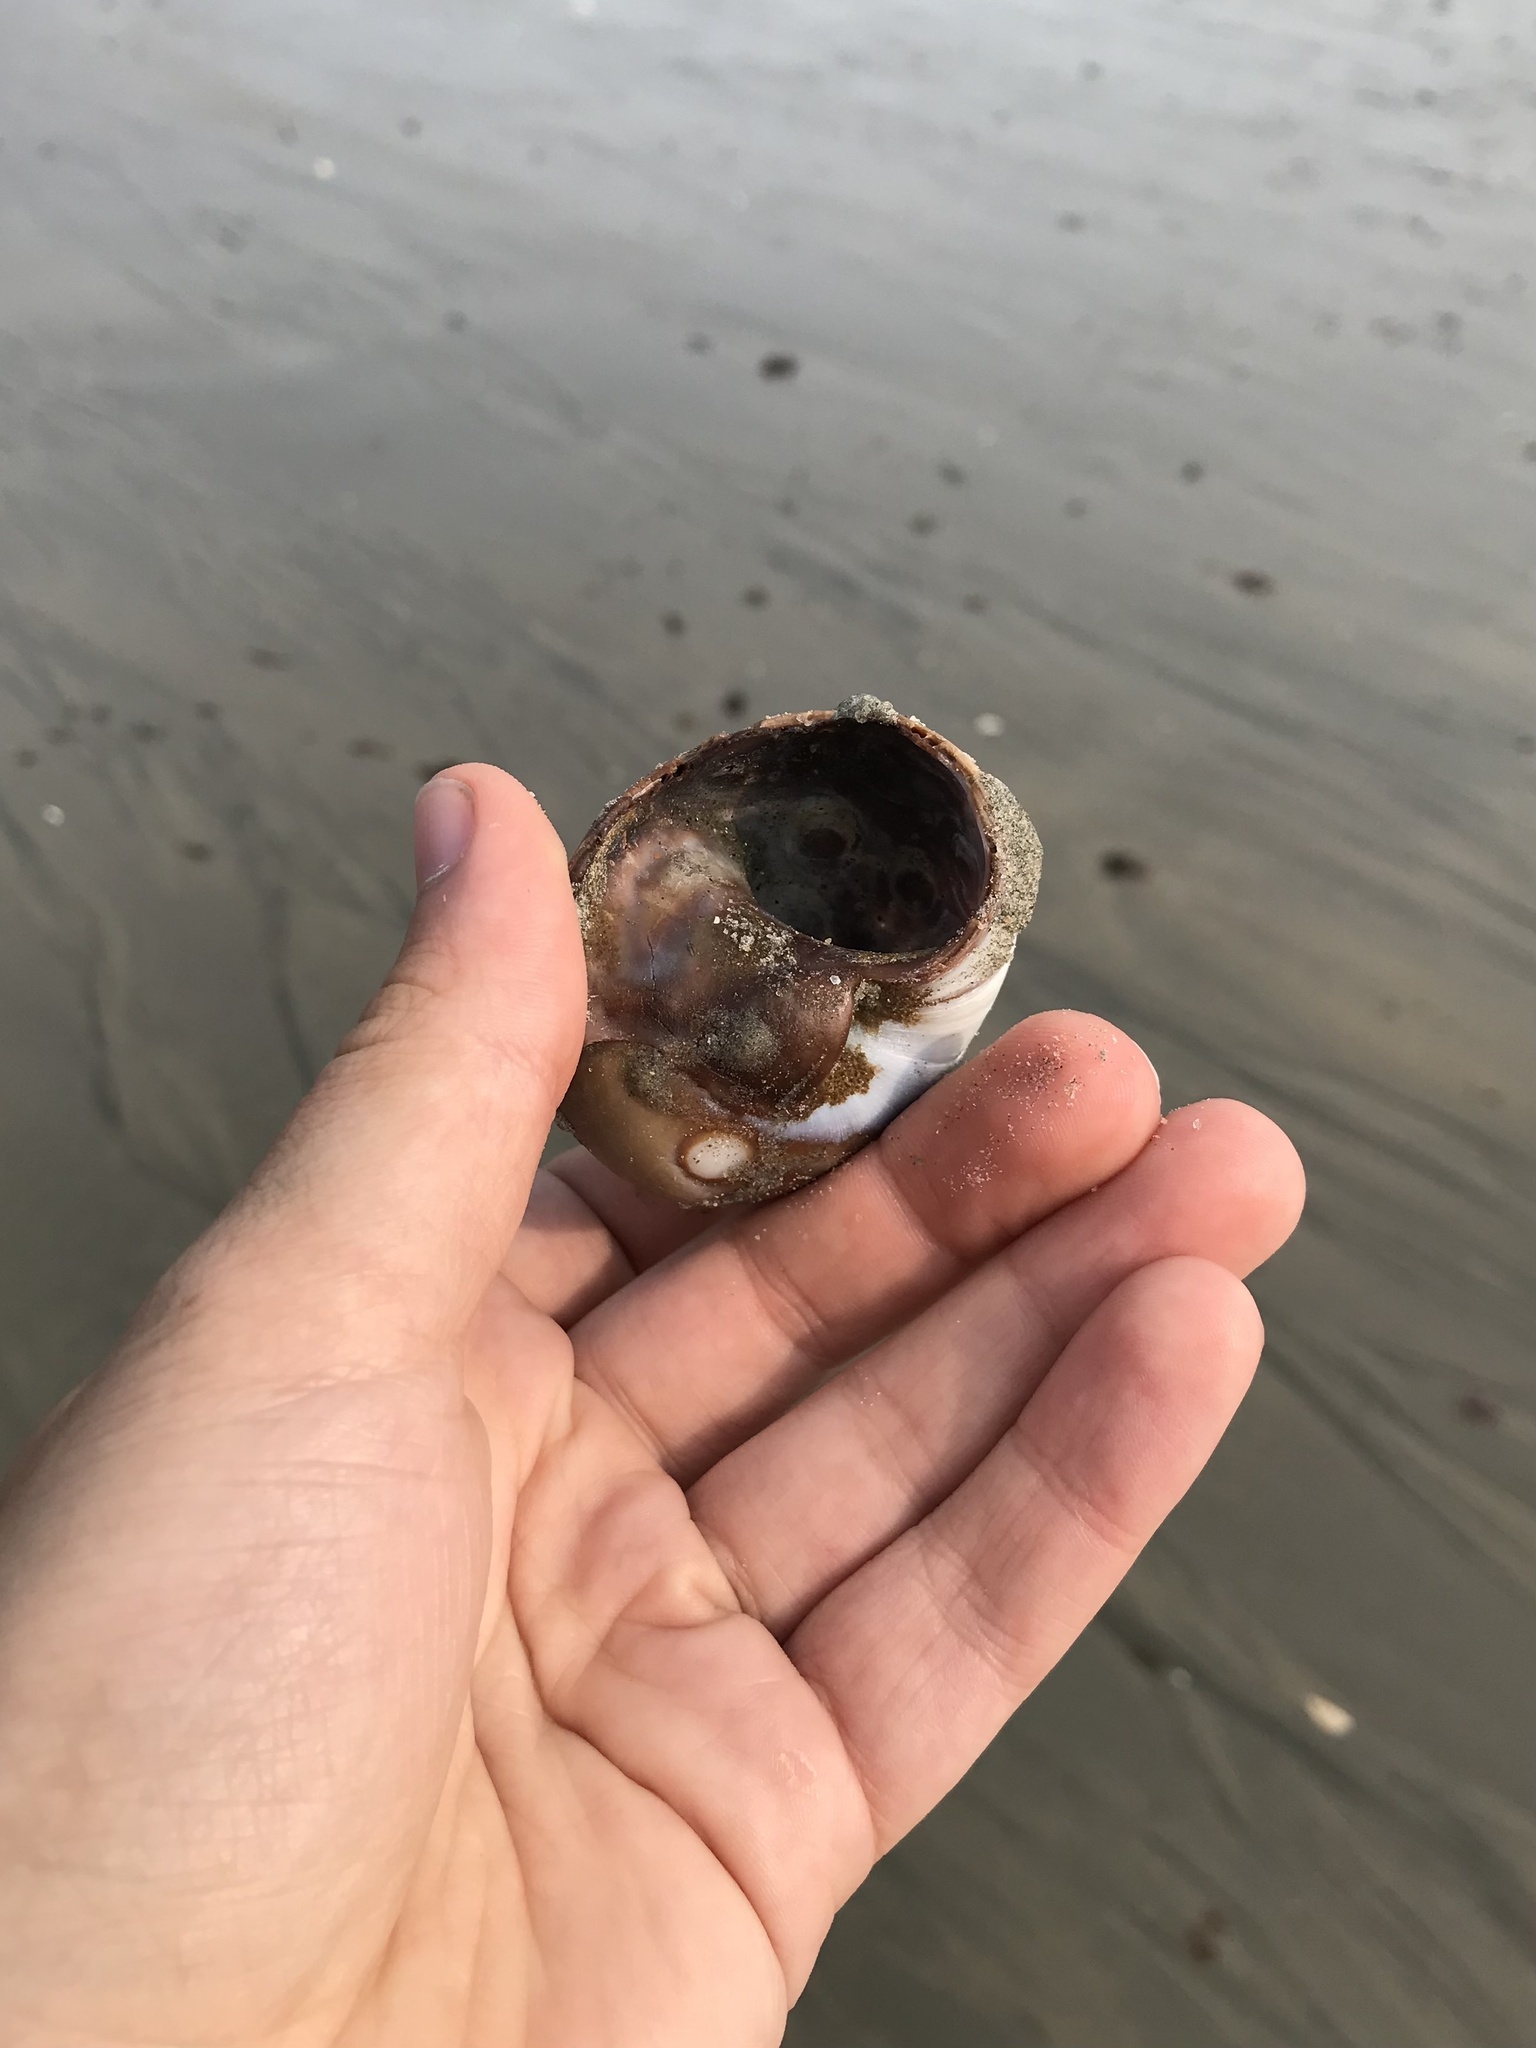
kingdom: Animalia
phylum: Mollusca
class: Gastropoda
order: Littorinimorpha
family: Naticidae
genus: Neverita
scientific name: Neverita duplicata
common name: Lobed moonsnail
